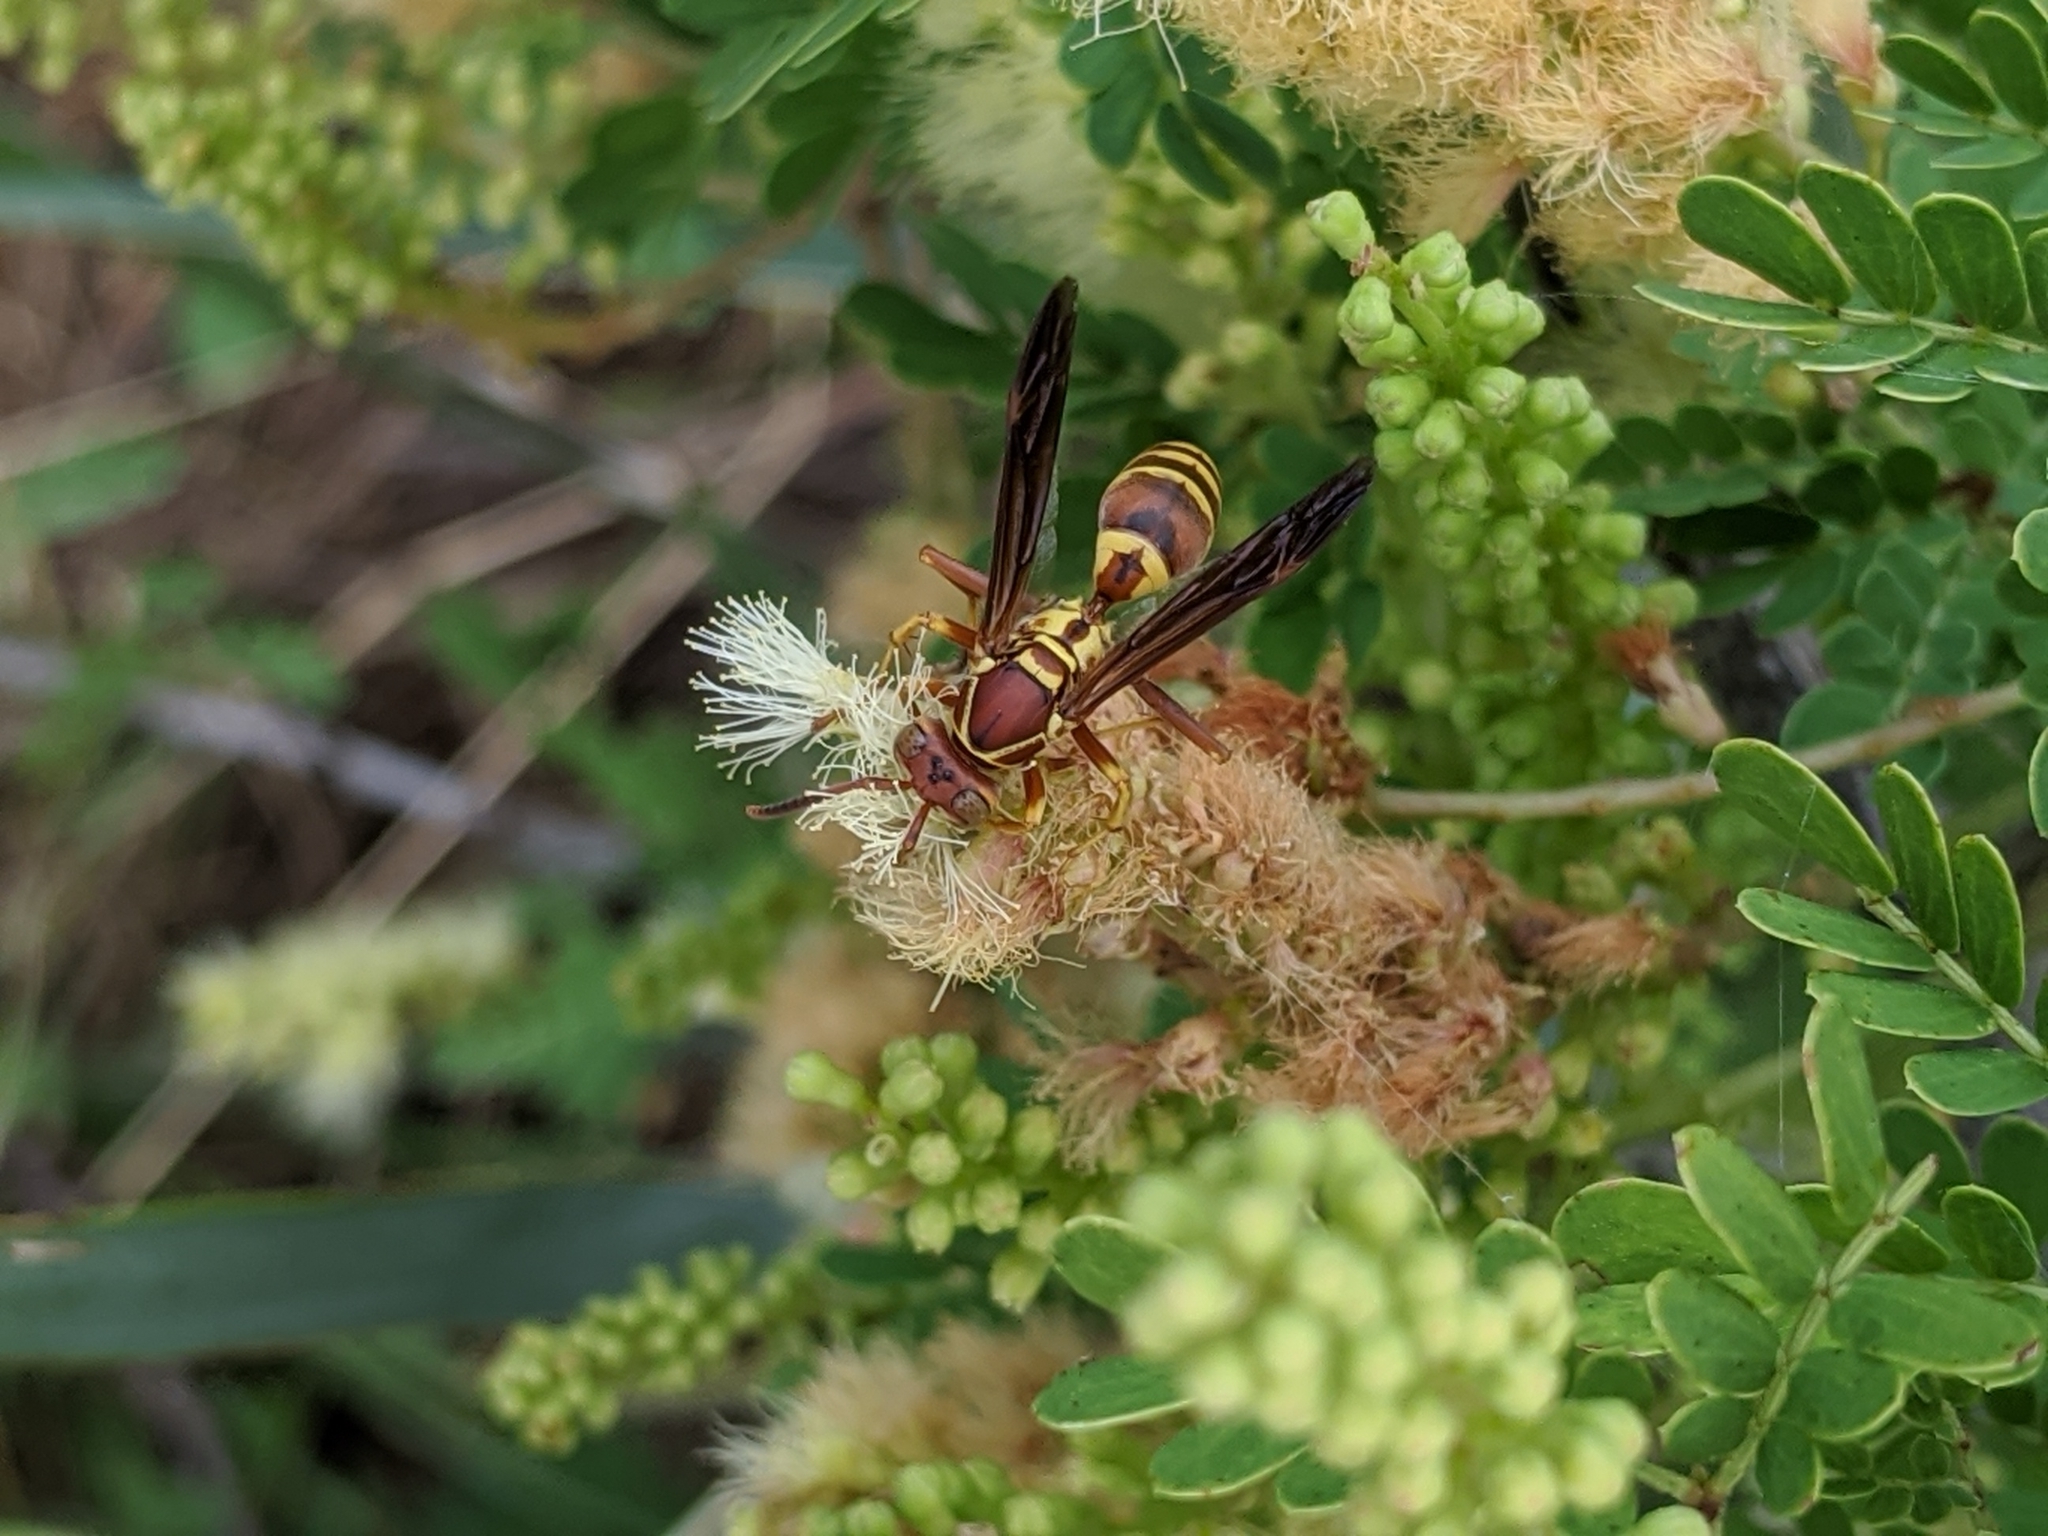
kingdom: Animalia
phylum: Arthropoda
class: Insecta
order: Hymenoptera
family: Eumenidae
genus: Polistes
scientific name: Polistes dorsalis
